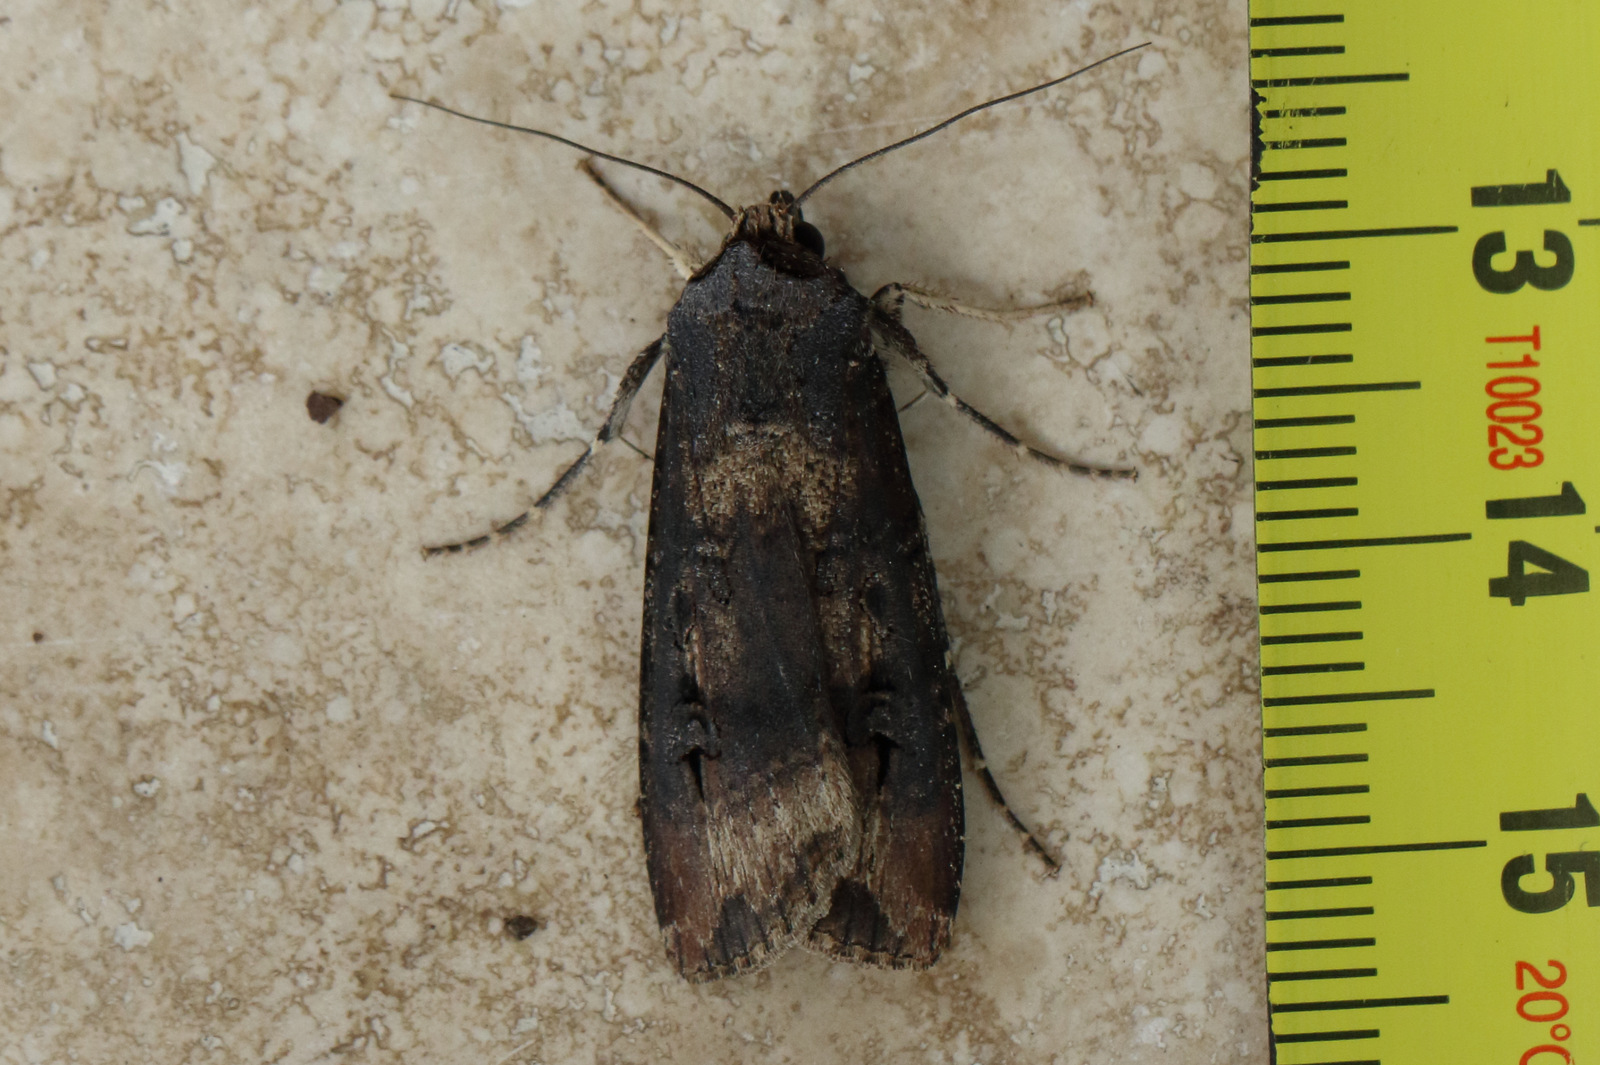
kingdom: Animalia
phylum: Arthropoda
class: Insecta
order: Lepidoptera
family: Noctuidae
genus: Agrotis
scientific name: Agrotis ipsilon
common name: Dark sword-grass
